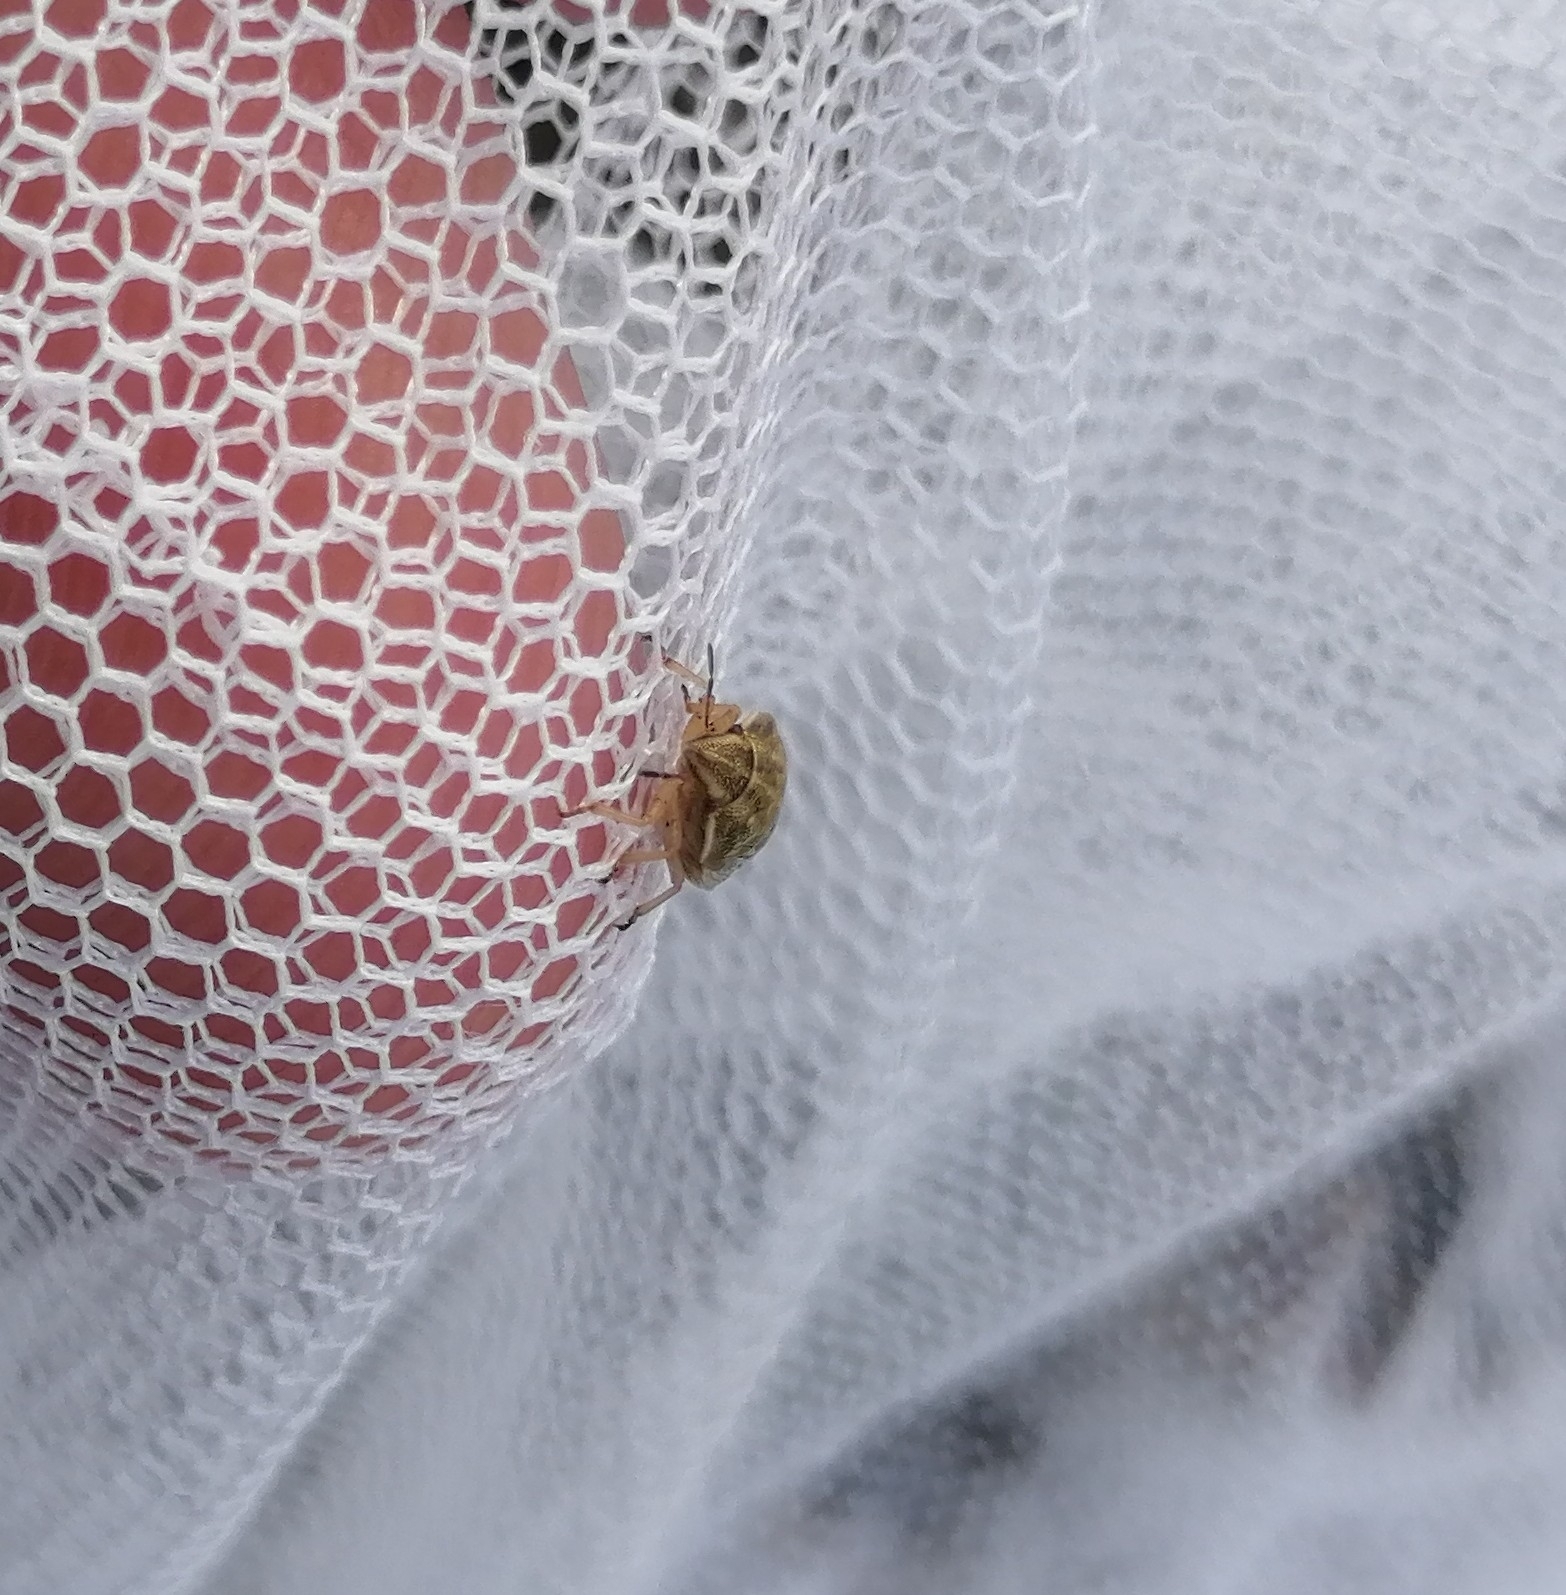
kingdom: Animalia
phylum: Arthropoda
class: Insecta
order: Hemiptera
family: Pentatomidae
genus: Neottiglossa
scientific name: Neottiglossa leporina
